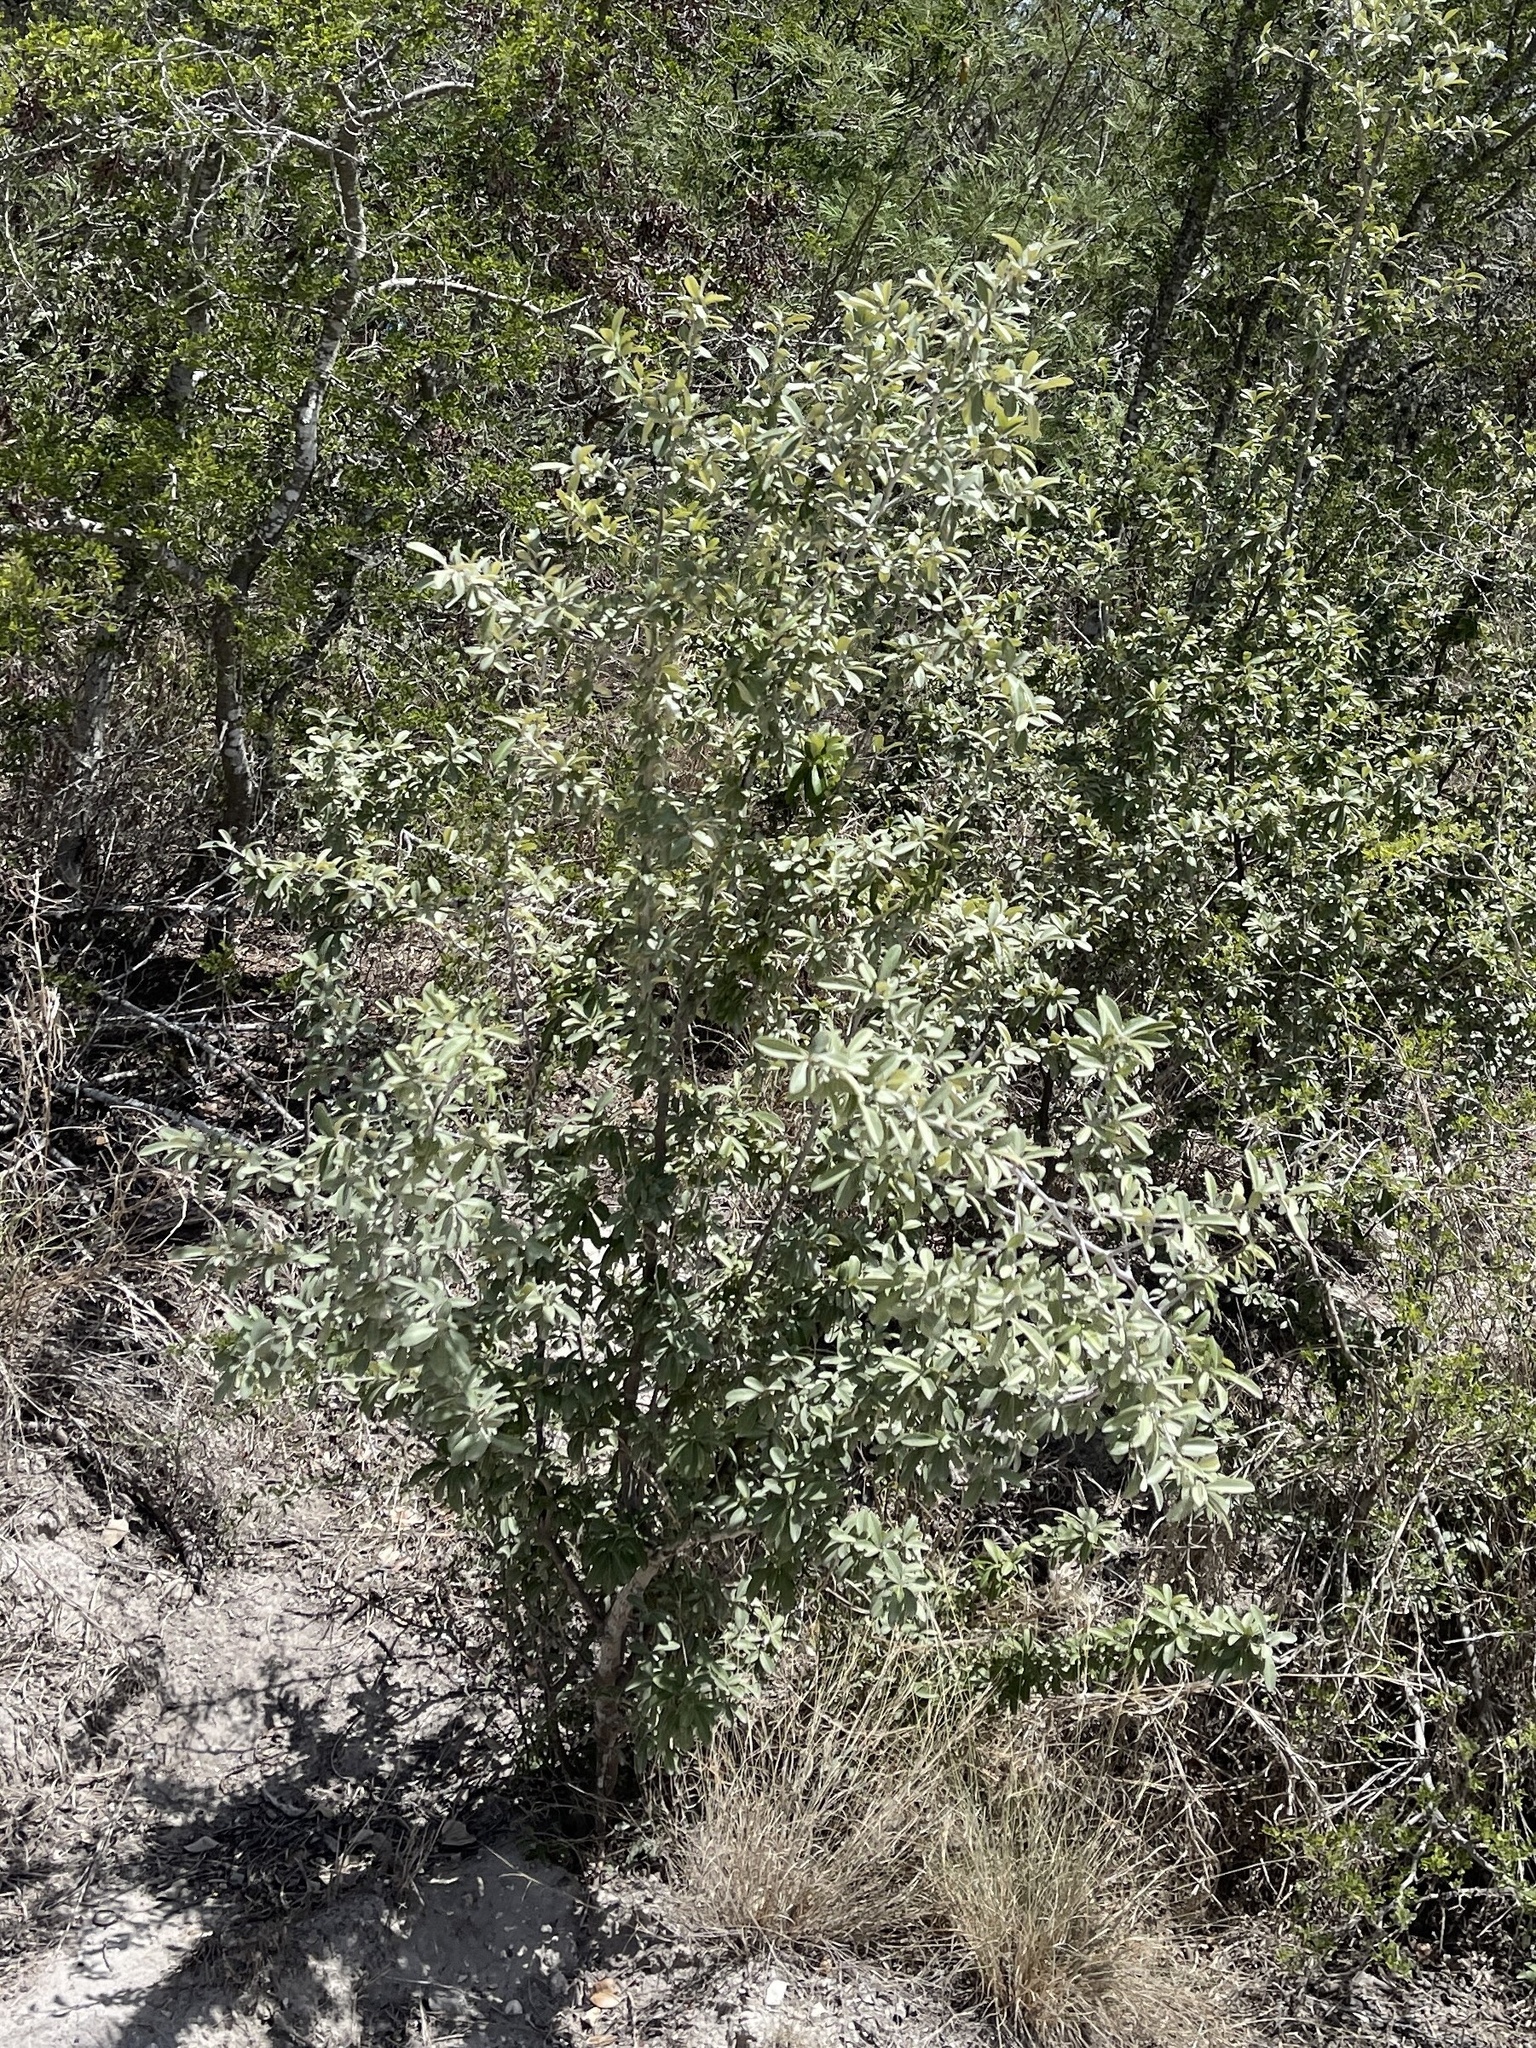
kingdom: Plantae
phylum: Tracheophyta
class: Magnoliopsida
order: Ericales
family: Sapotaceae
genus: Sideroxylon
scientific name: Sideroxylon lanuginosum
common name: Chittamwood
